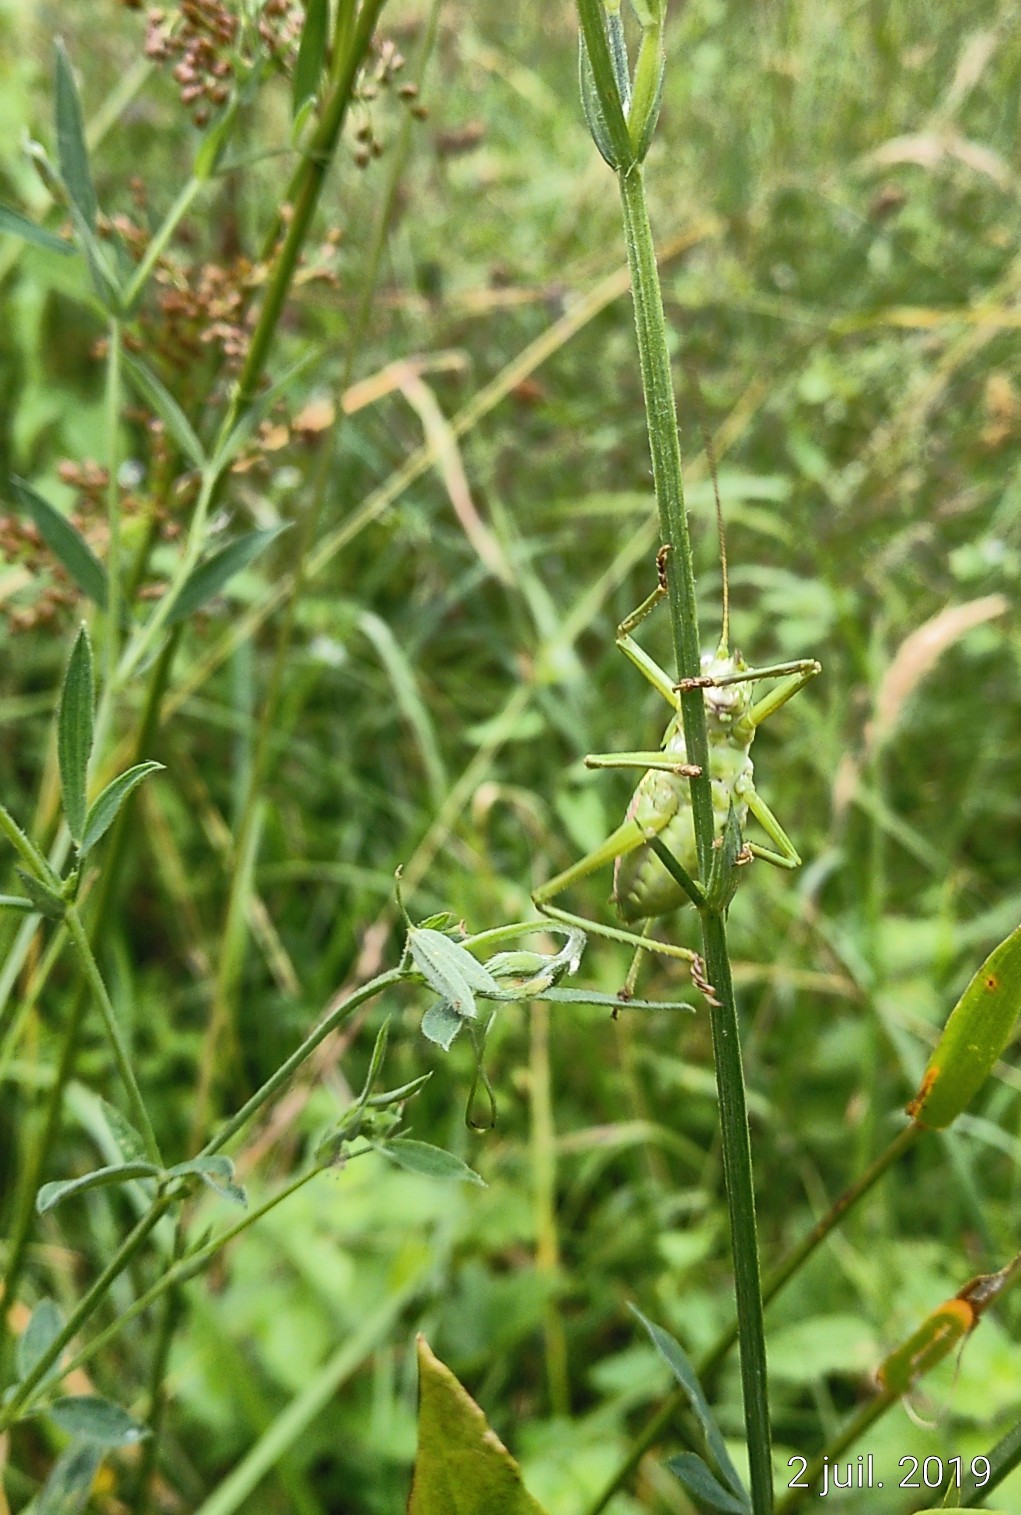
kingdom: Animalia
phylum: Arthropoda
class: Insecta
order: Orthoptera
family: Tettigoniidae
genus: Uromenus
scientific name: Uromenus rugosicollis
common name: Rough saddle bush-cricket
